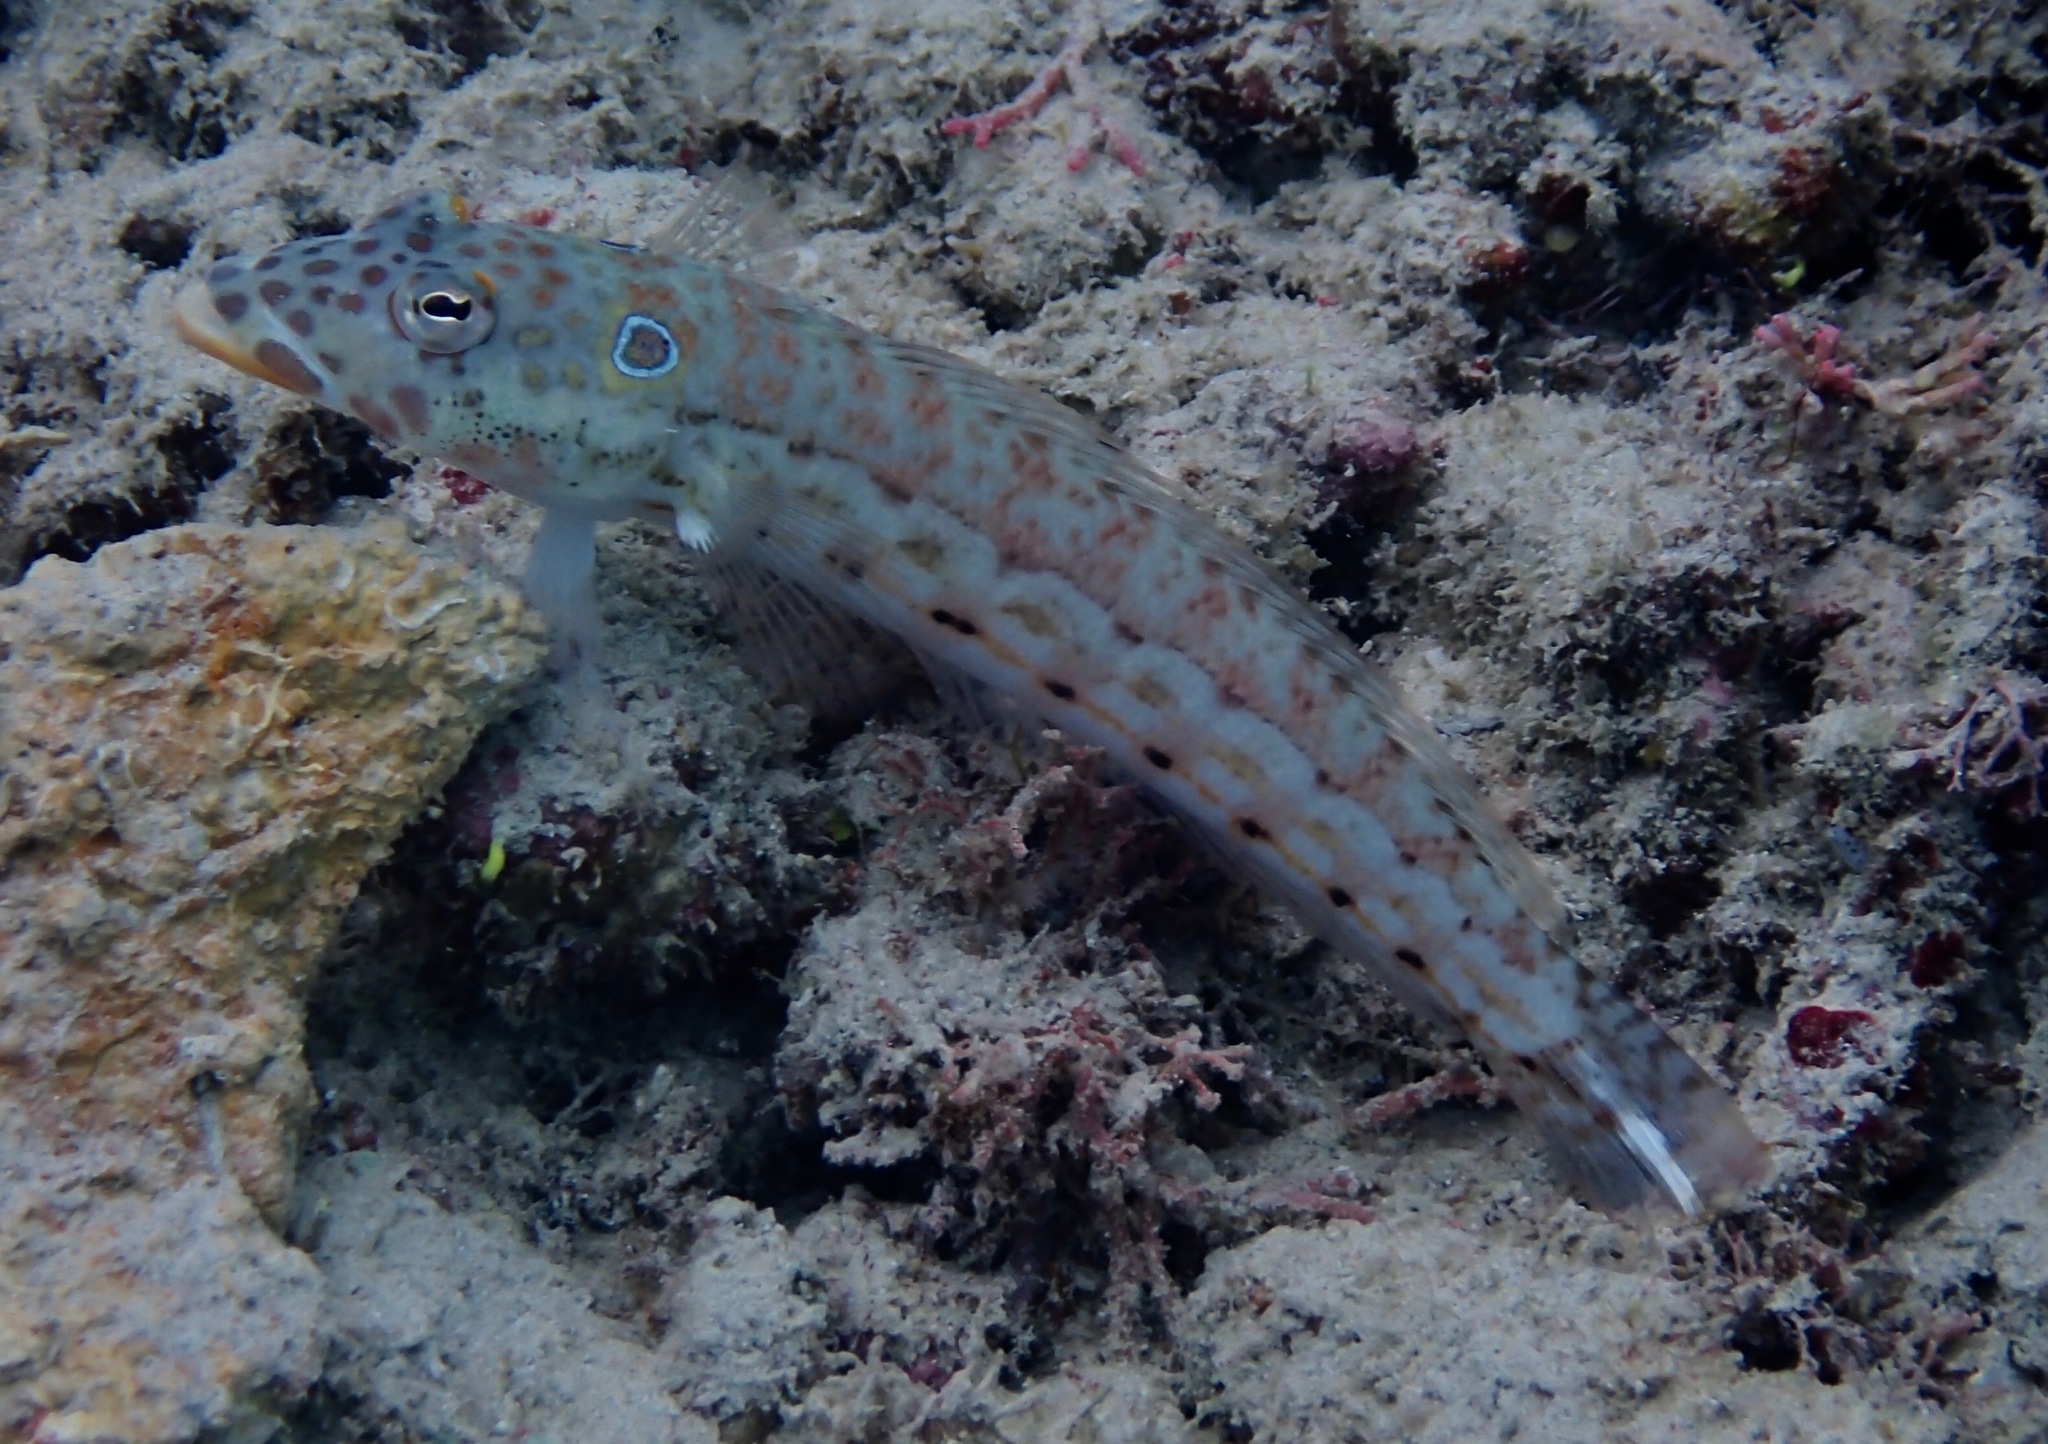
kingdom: Animalia
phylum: Chordata
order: Perciformes
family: Pinguipedidae
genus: Parapercis
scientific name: Parapercis clathrata
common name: Latticed sandperch
